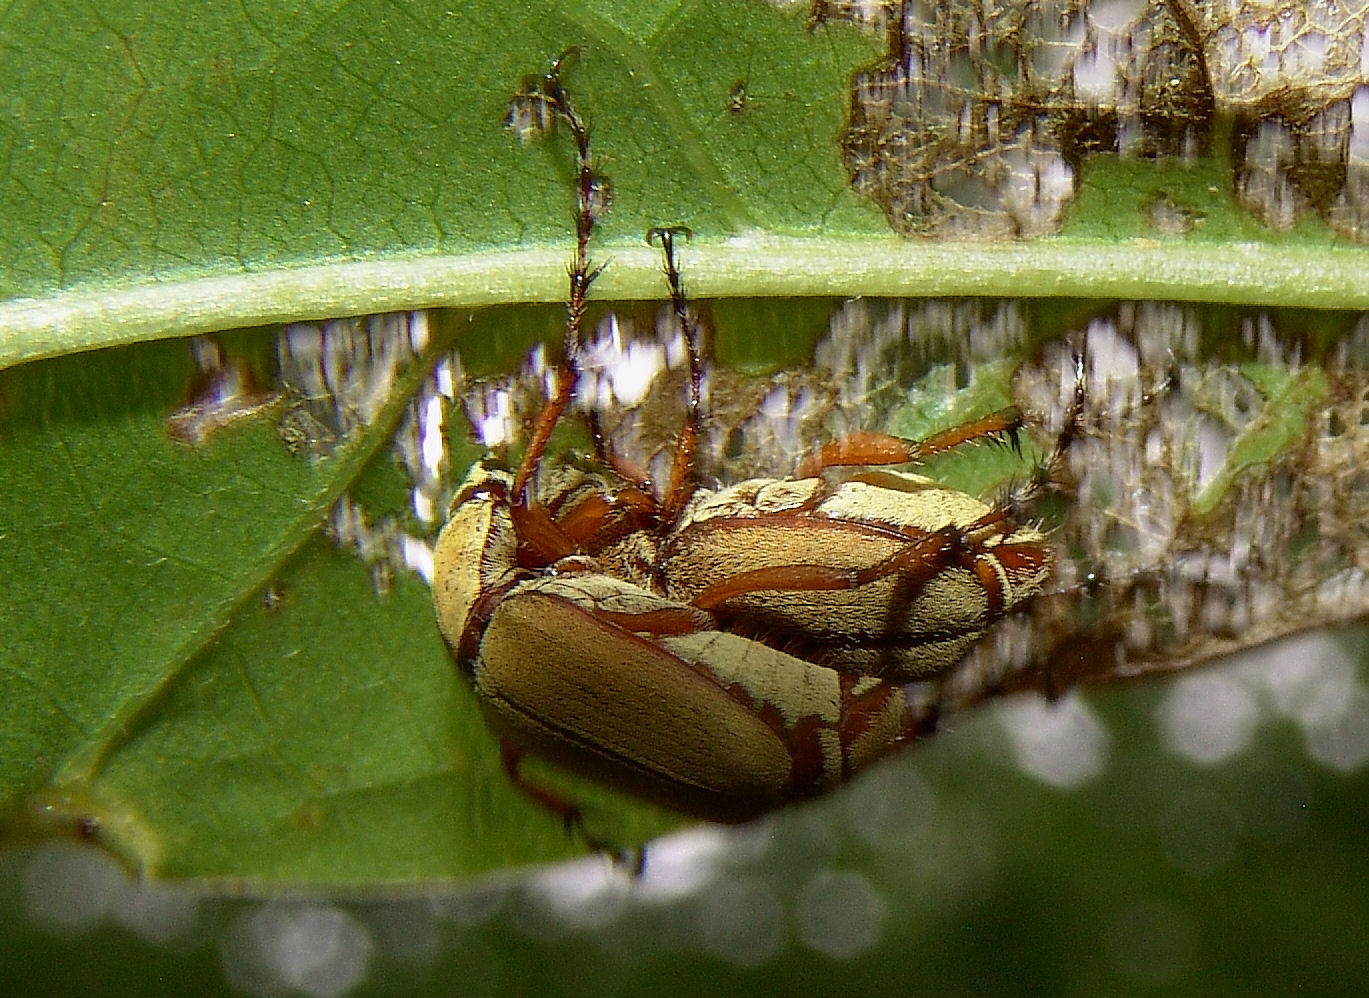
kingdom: Animalia
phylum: Arthropoda
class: Insecta
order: Coleoptera
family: Scarabaeidae
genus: Macrodactylus
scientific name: Macrodactylus subspinosus
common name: American rose chafer
